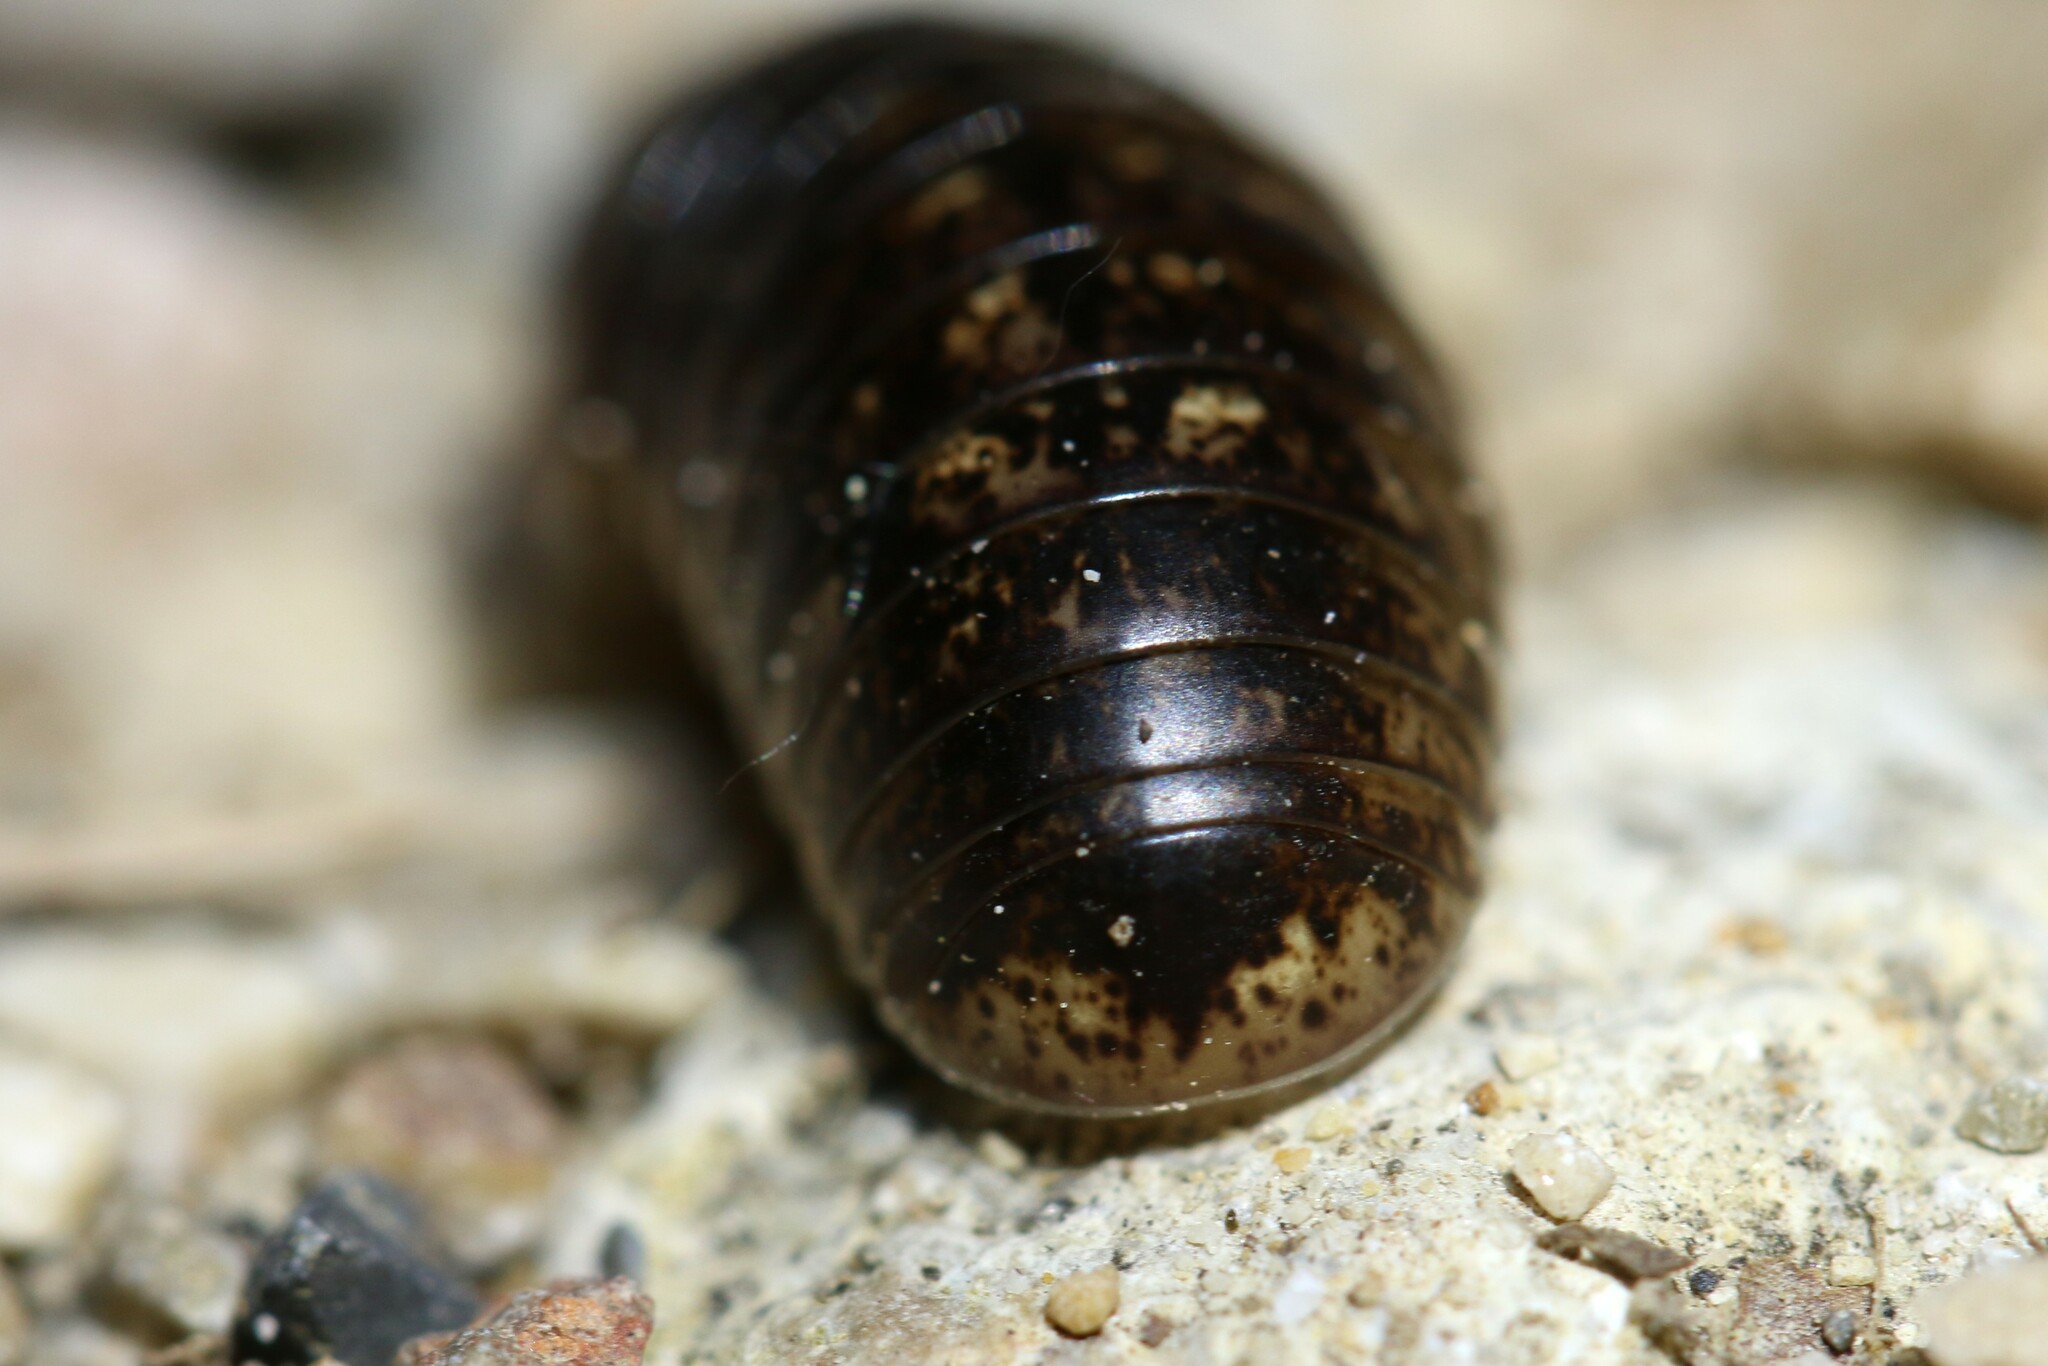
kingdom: Animalia
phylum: Arthropoda
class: Diplopoda
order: Glomerida
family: Glomeridae
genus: Glomeris
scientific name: Glomeris klugii
